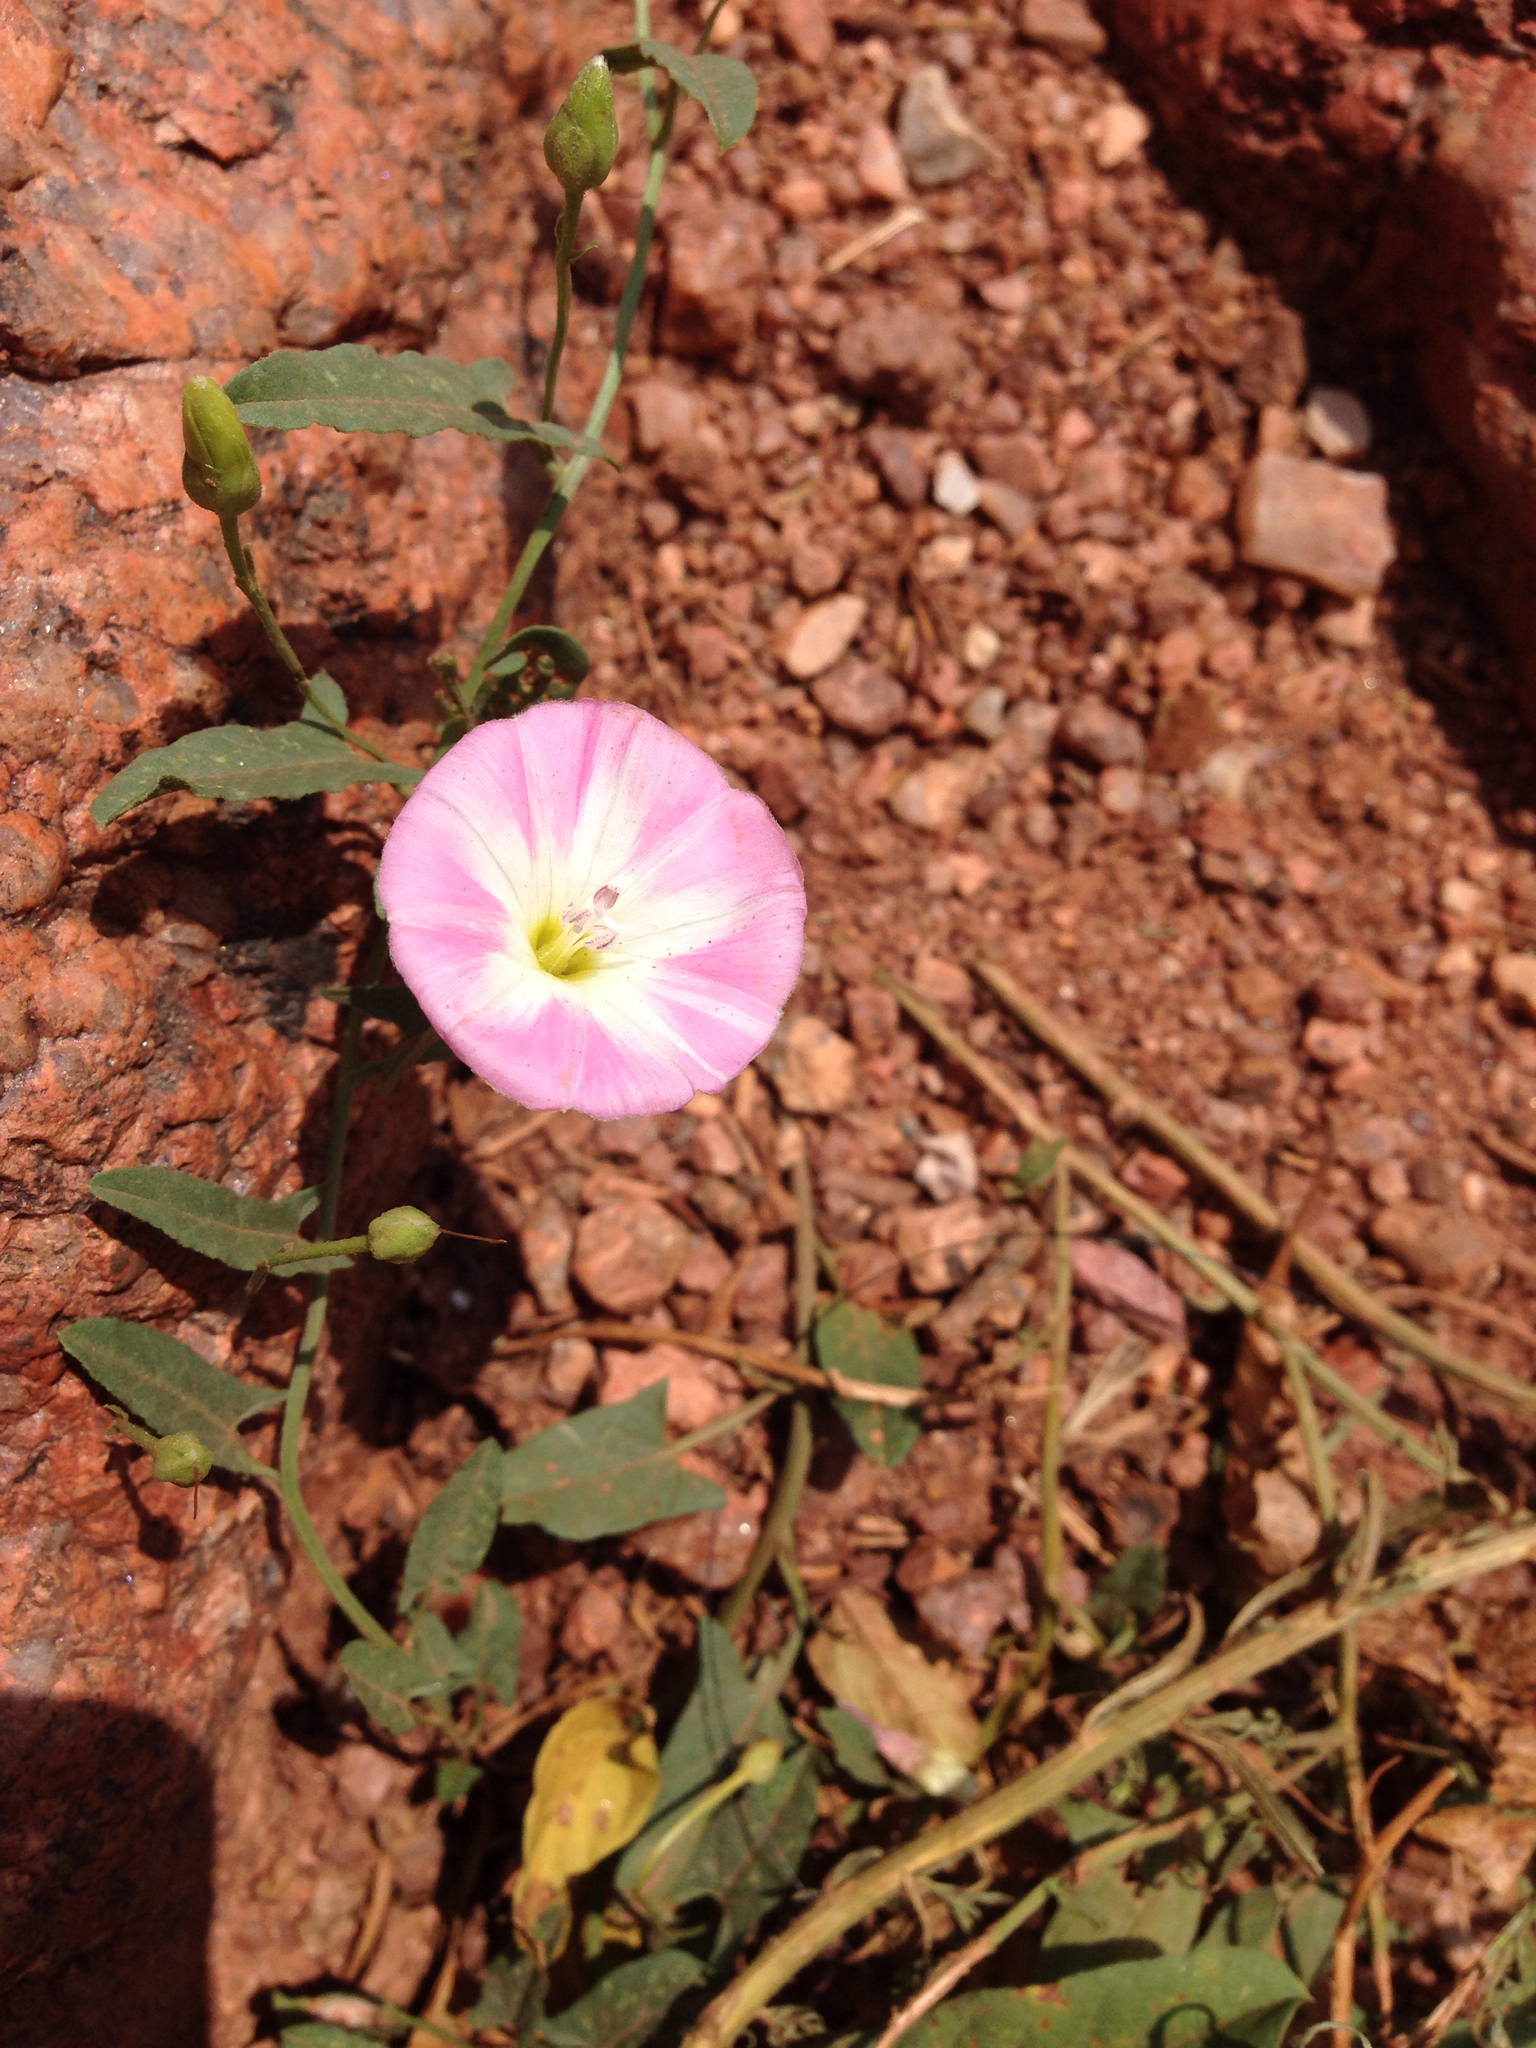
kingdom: Plantae
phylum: Tracheophyta
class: Magnoliopsida
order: Solanales
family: Convolvulaceae
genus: Convolvulus
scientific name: Convolvulus arvensis
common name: Field bindweed
